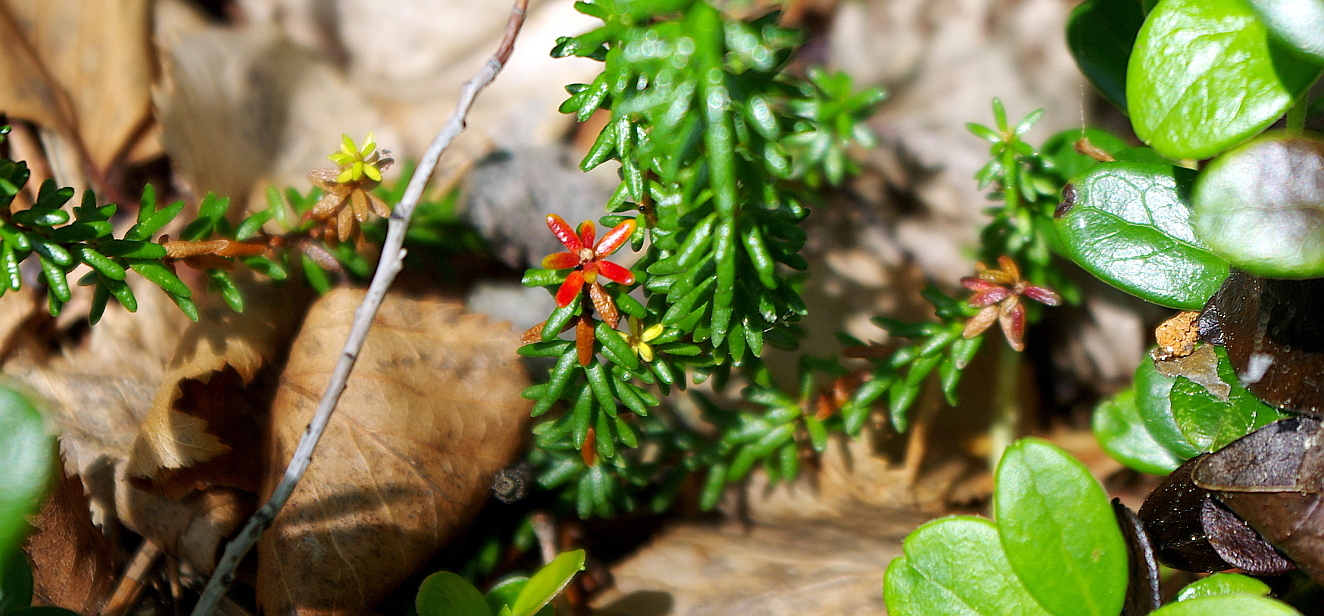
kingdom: Plantae
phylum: Tracheophyta
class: Magnoliopsida
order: Ericales
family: Ericaceae
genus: Empetrum
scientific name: Empetrum nigrum
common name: Black crowberry
